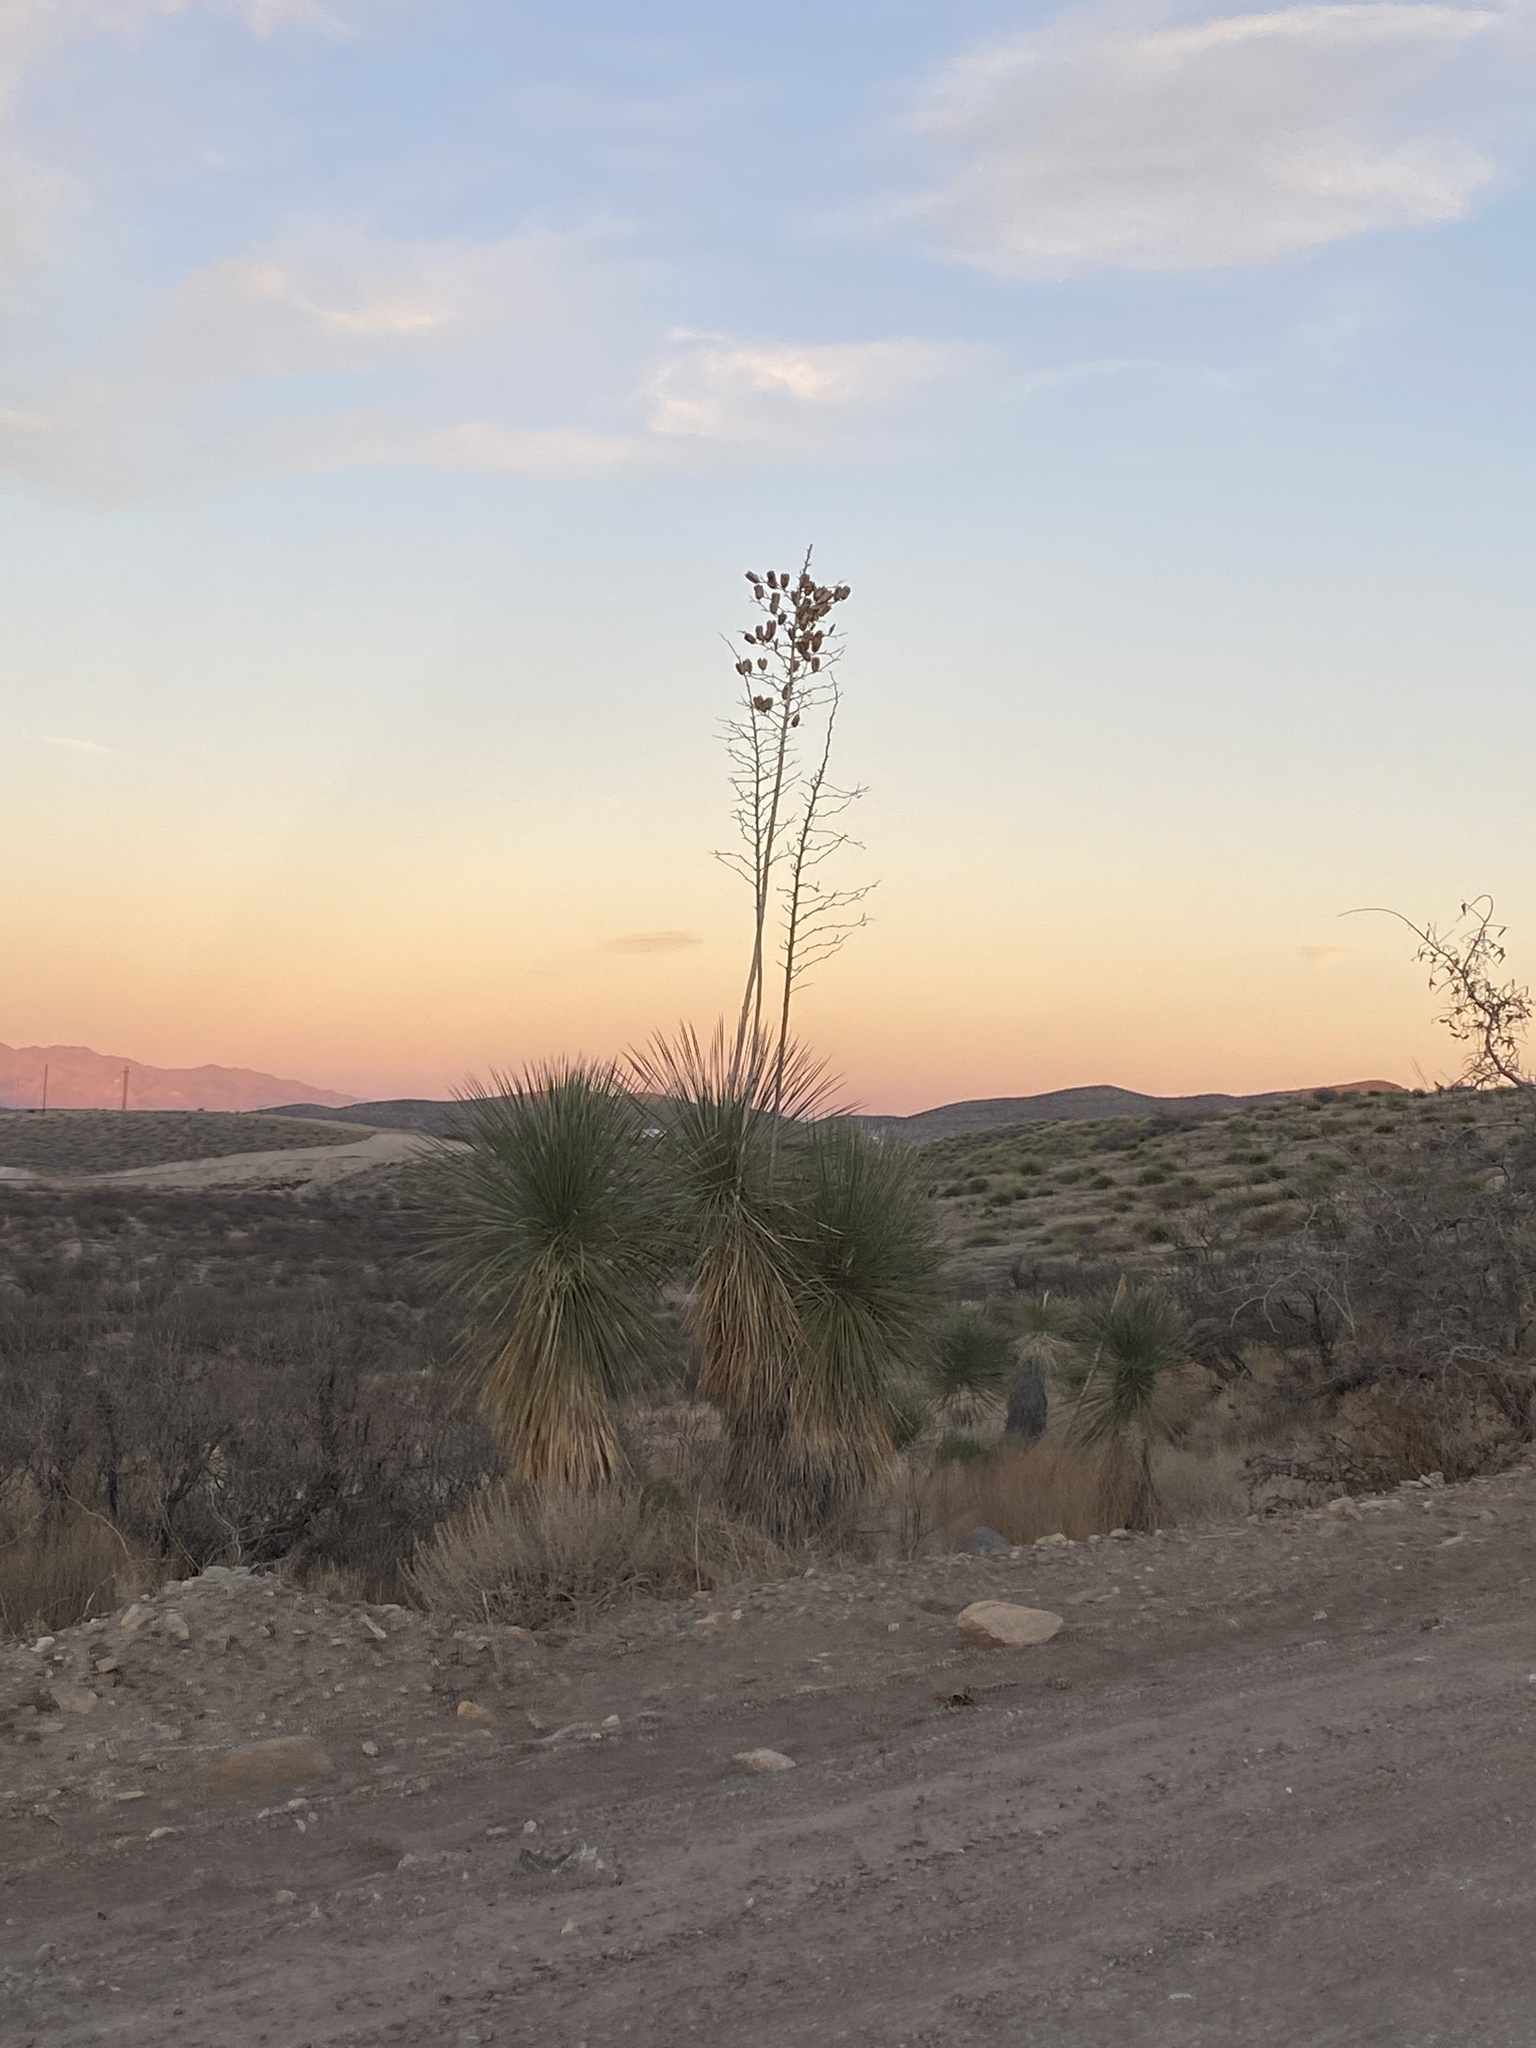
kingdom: Plantae
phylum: Tracheophyta
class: Liliopsida
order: Asparagales
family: Asparagaceae
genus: Yucca
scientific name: Yucca elata
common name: Palmella
